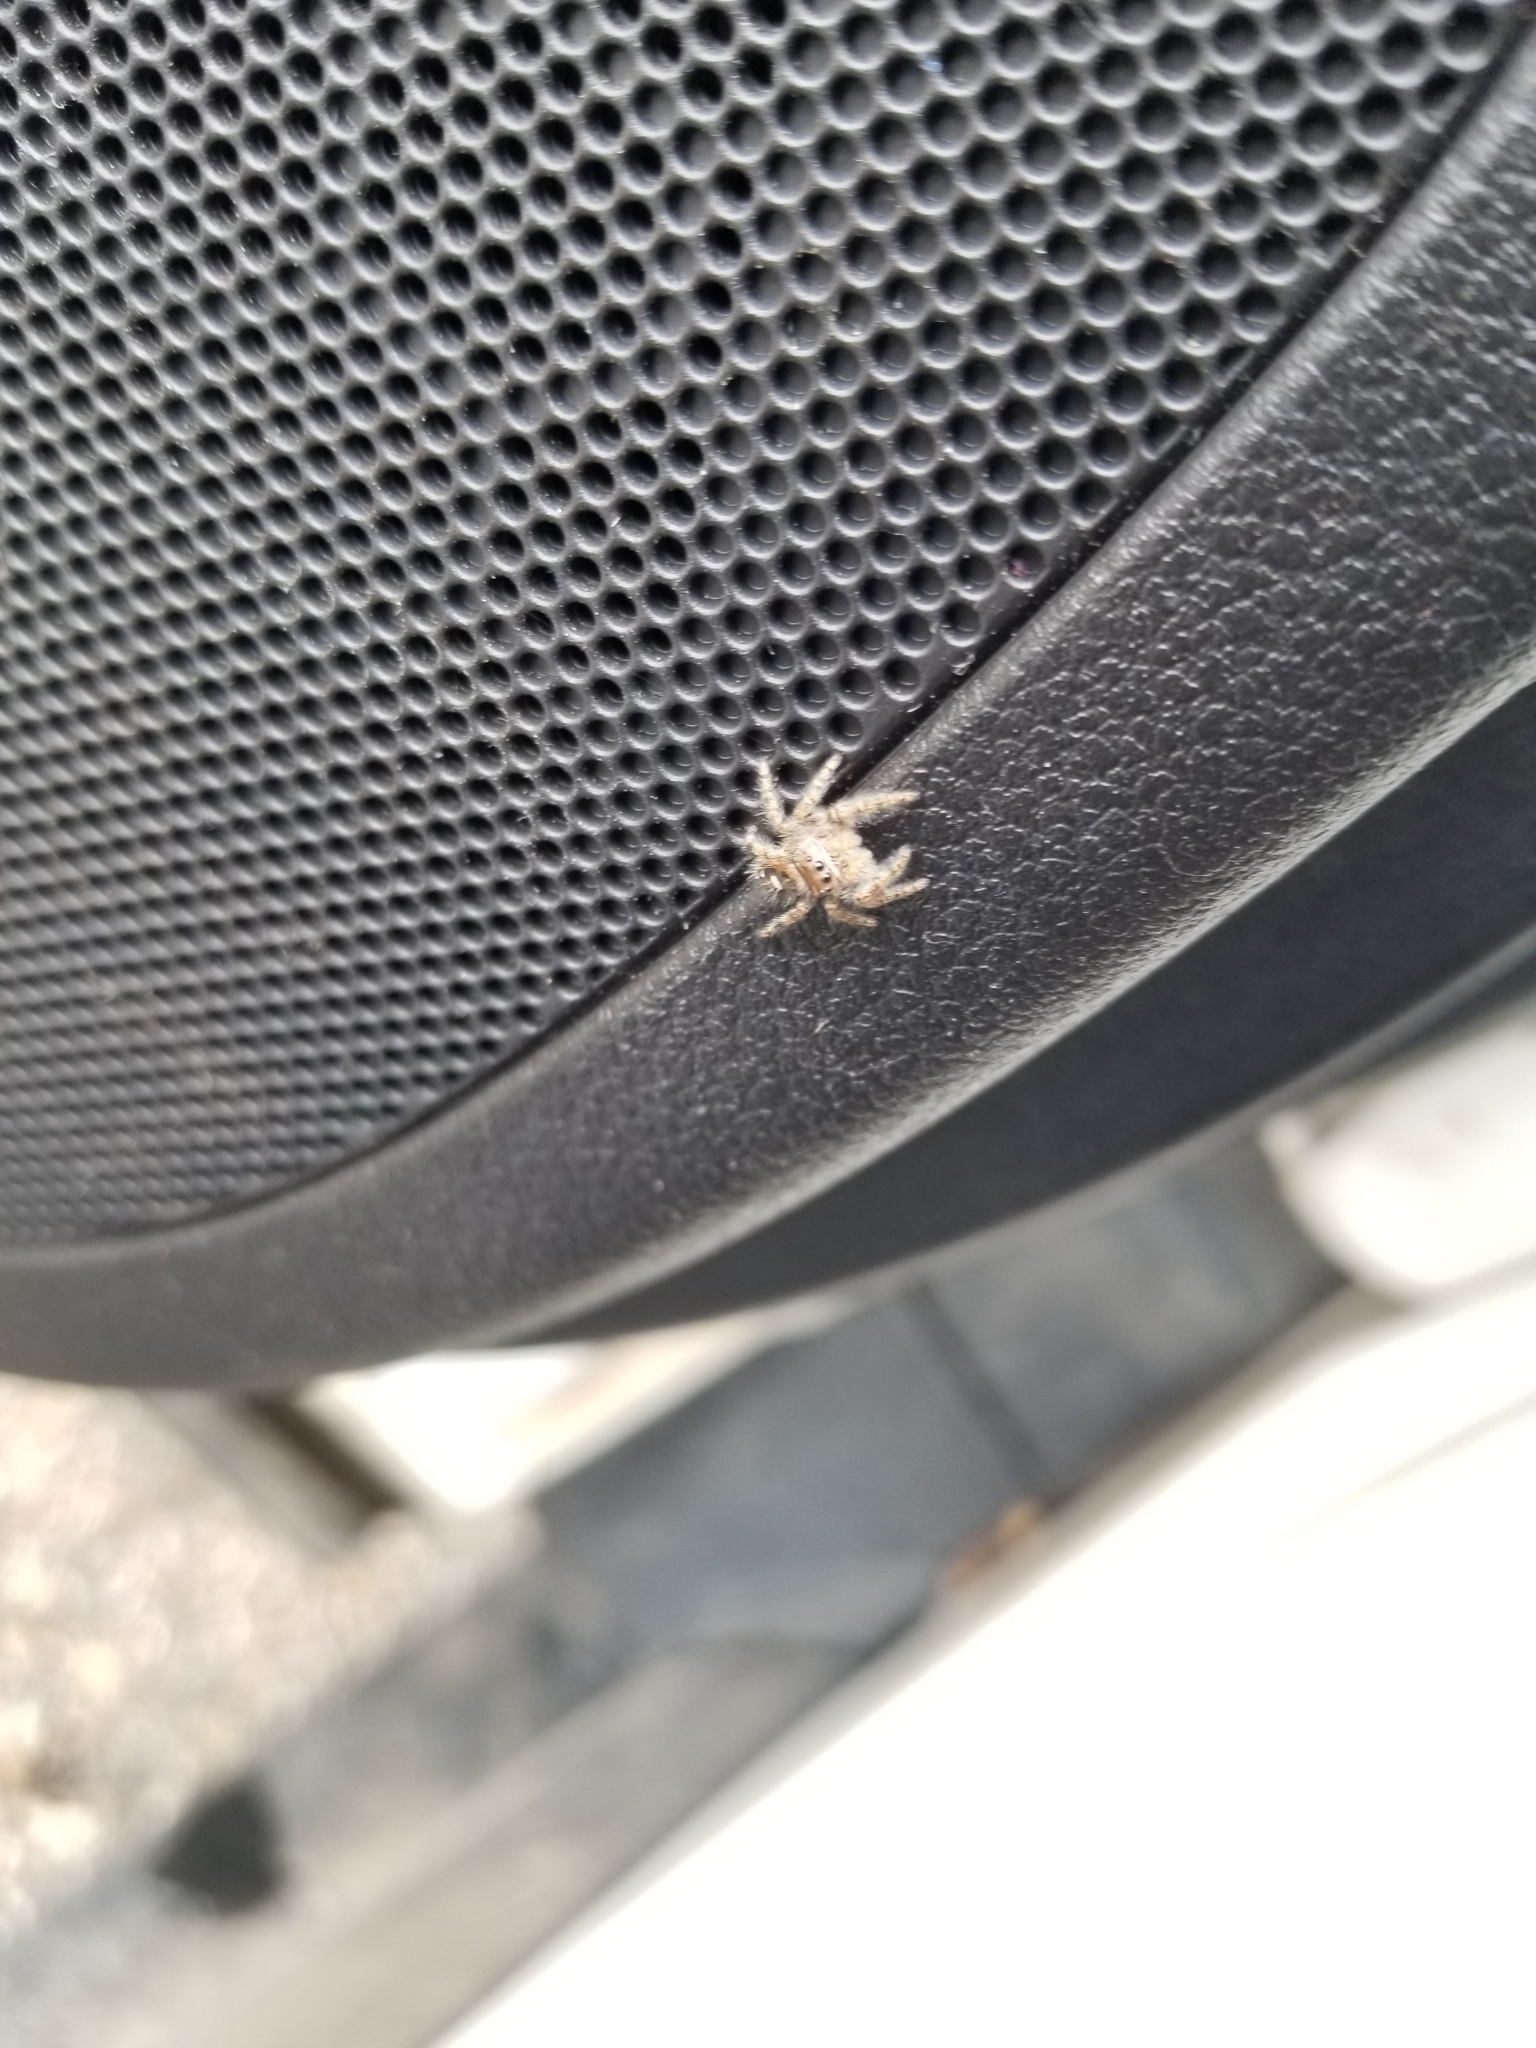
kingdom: Animalia
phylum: Arthropoda
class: Arachnida
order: Araneae
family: Salticidae
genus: Phidippus
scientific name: Phidippus audax
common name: Bold jumper
